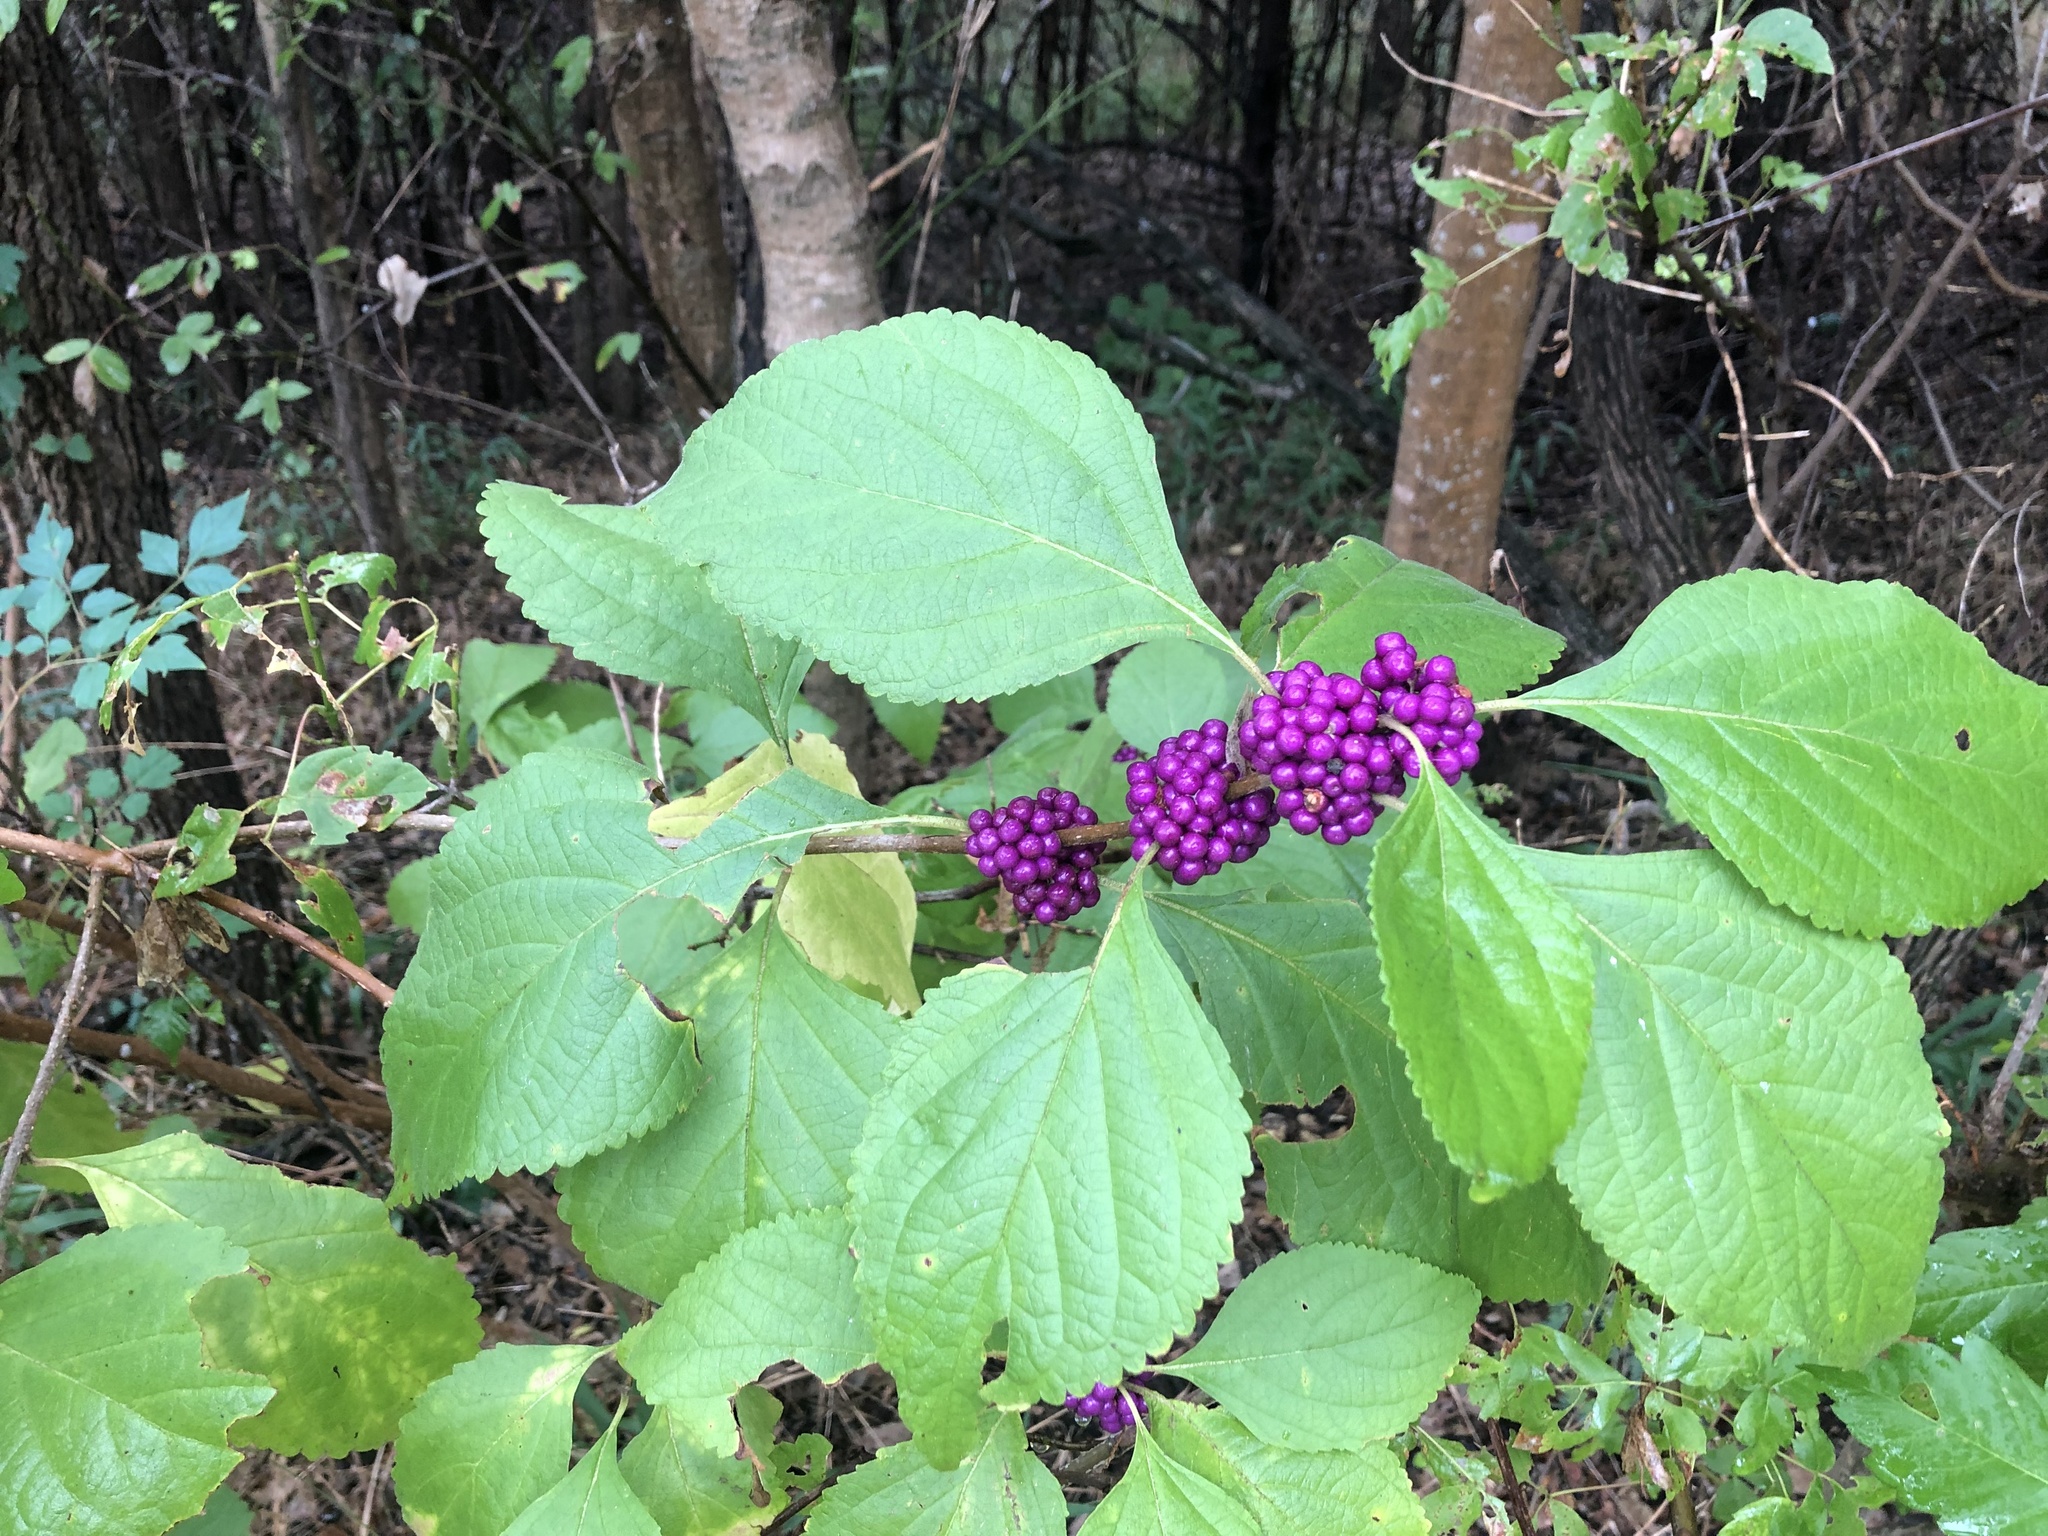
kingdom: Plantae
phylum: Tracheophyta
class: Magnoliopsida
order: Lamiales
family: Lamiaceae
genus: Callicarpa
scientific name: Callicarpa americana
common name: American beautyberry
